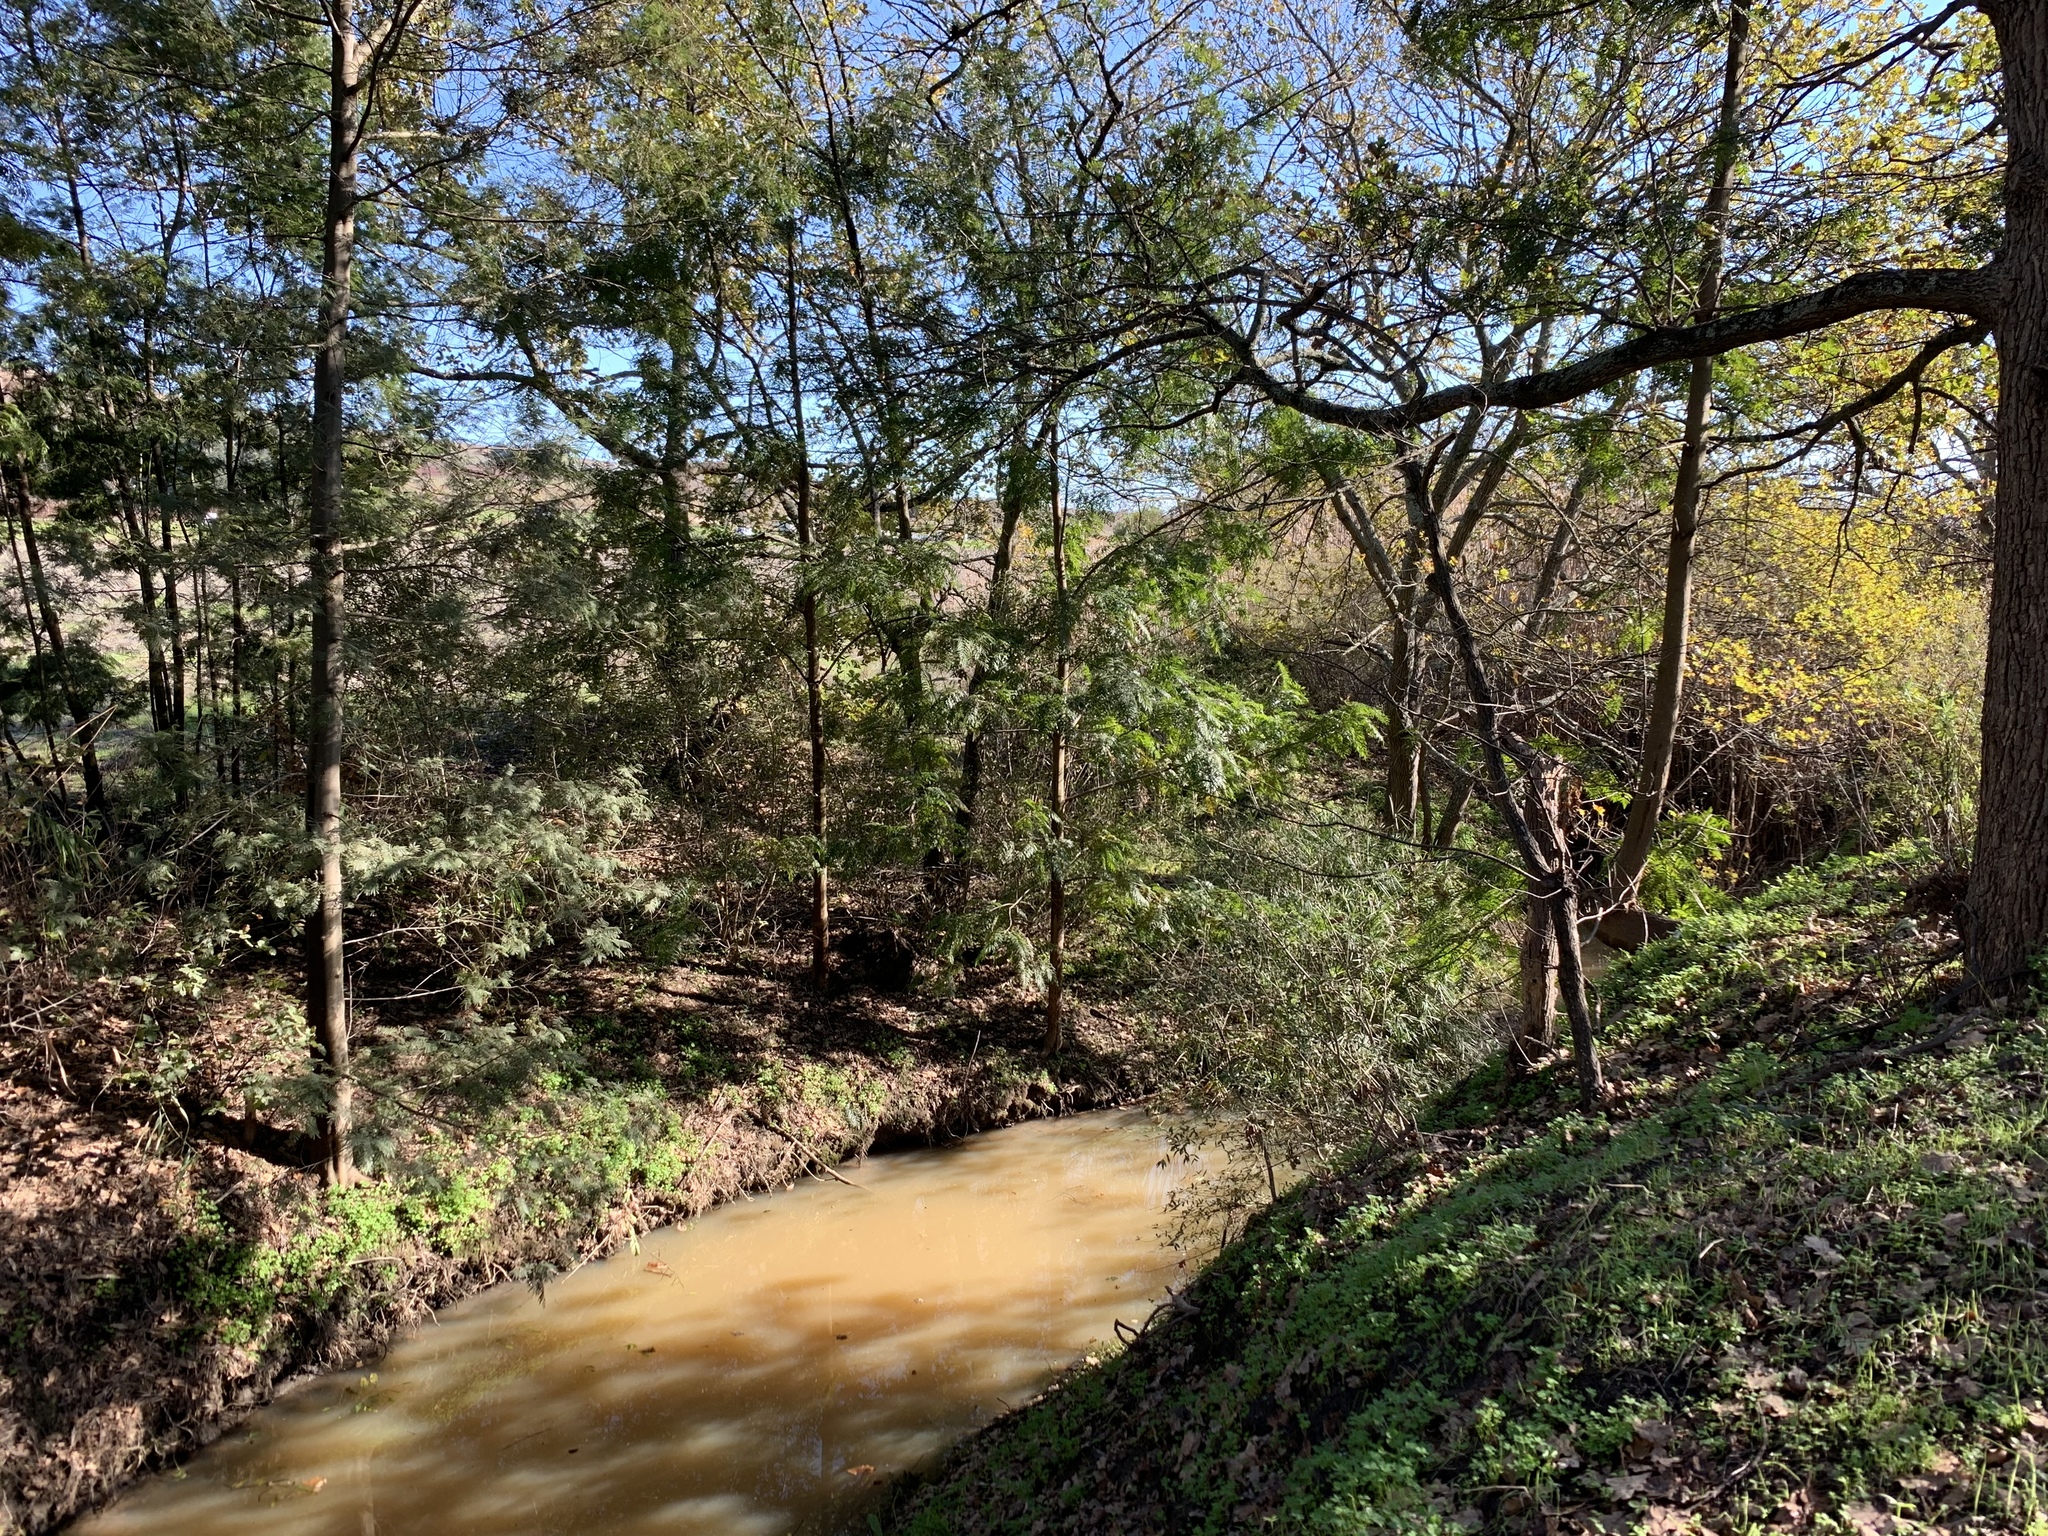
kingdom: Plantae
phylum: Tracheophyta
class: Magnoliopsida
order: Proteales
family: Proteaceae
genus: Grevillea
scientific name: Grevillea robusta
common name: Silkoak
